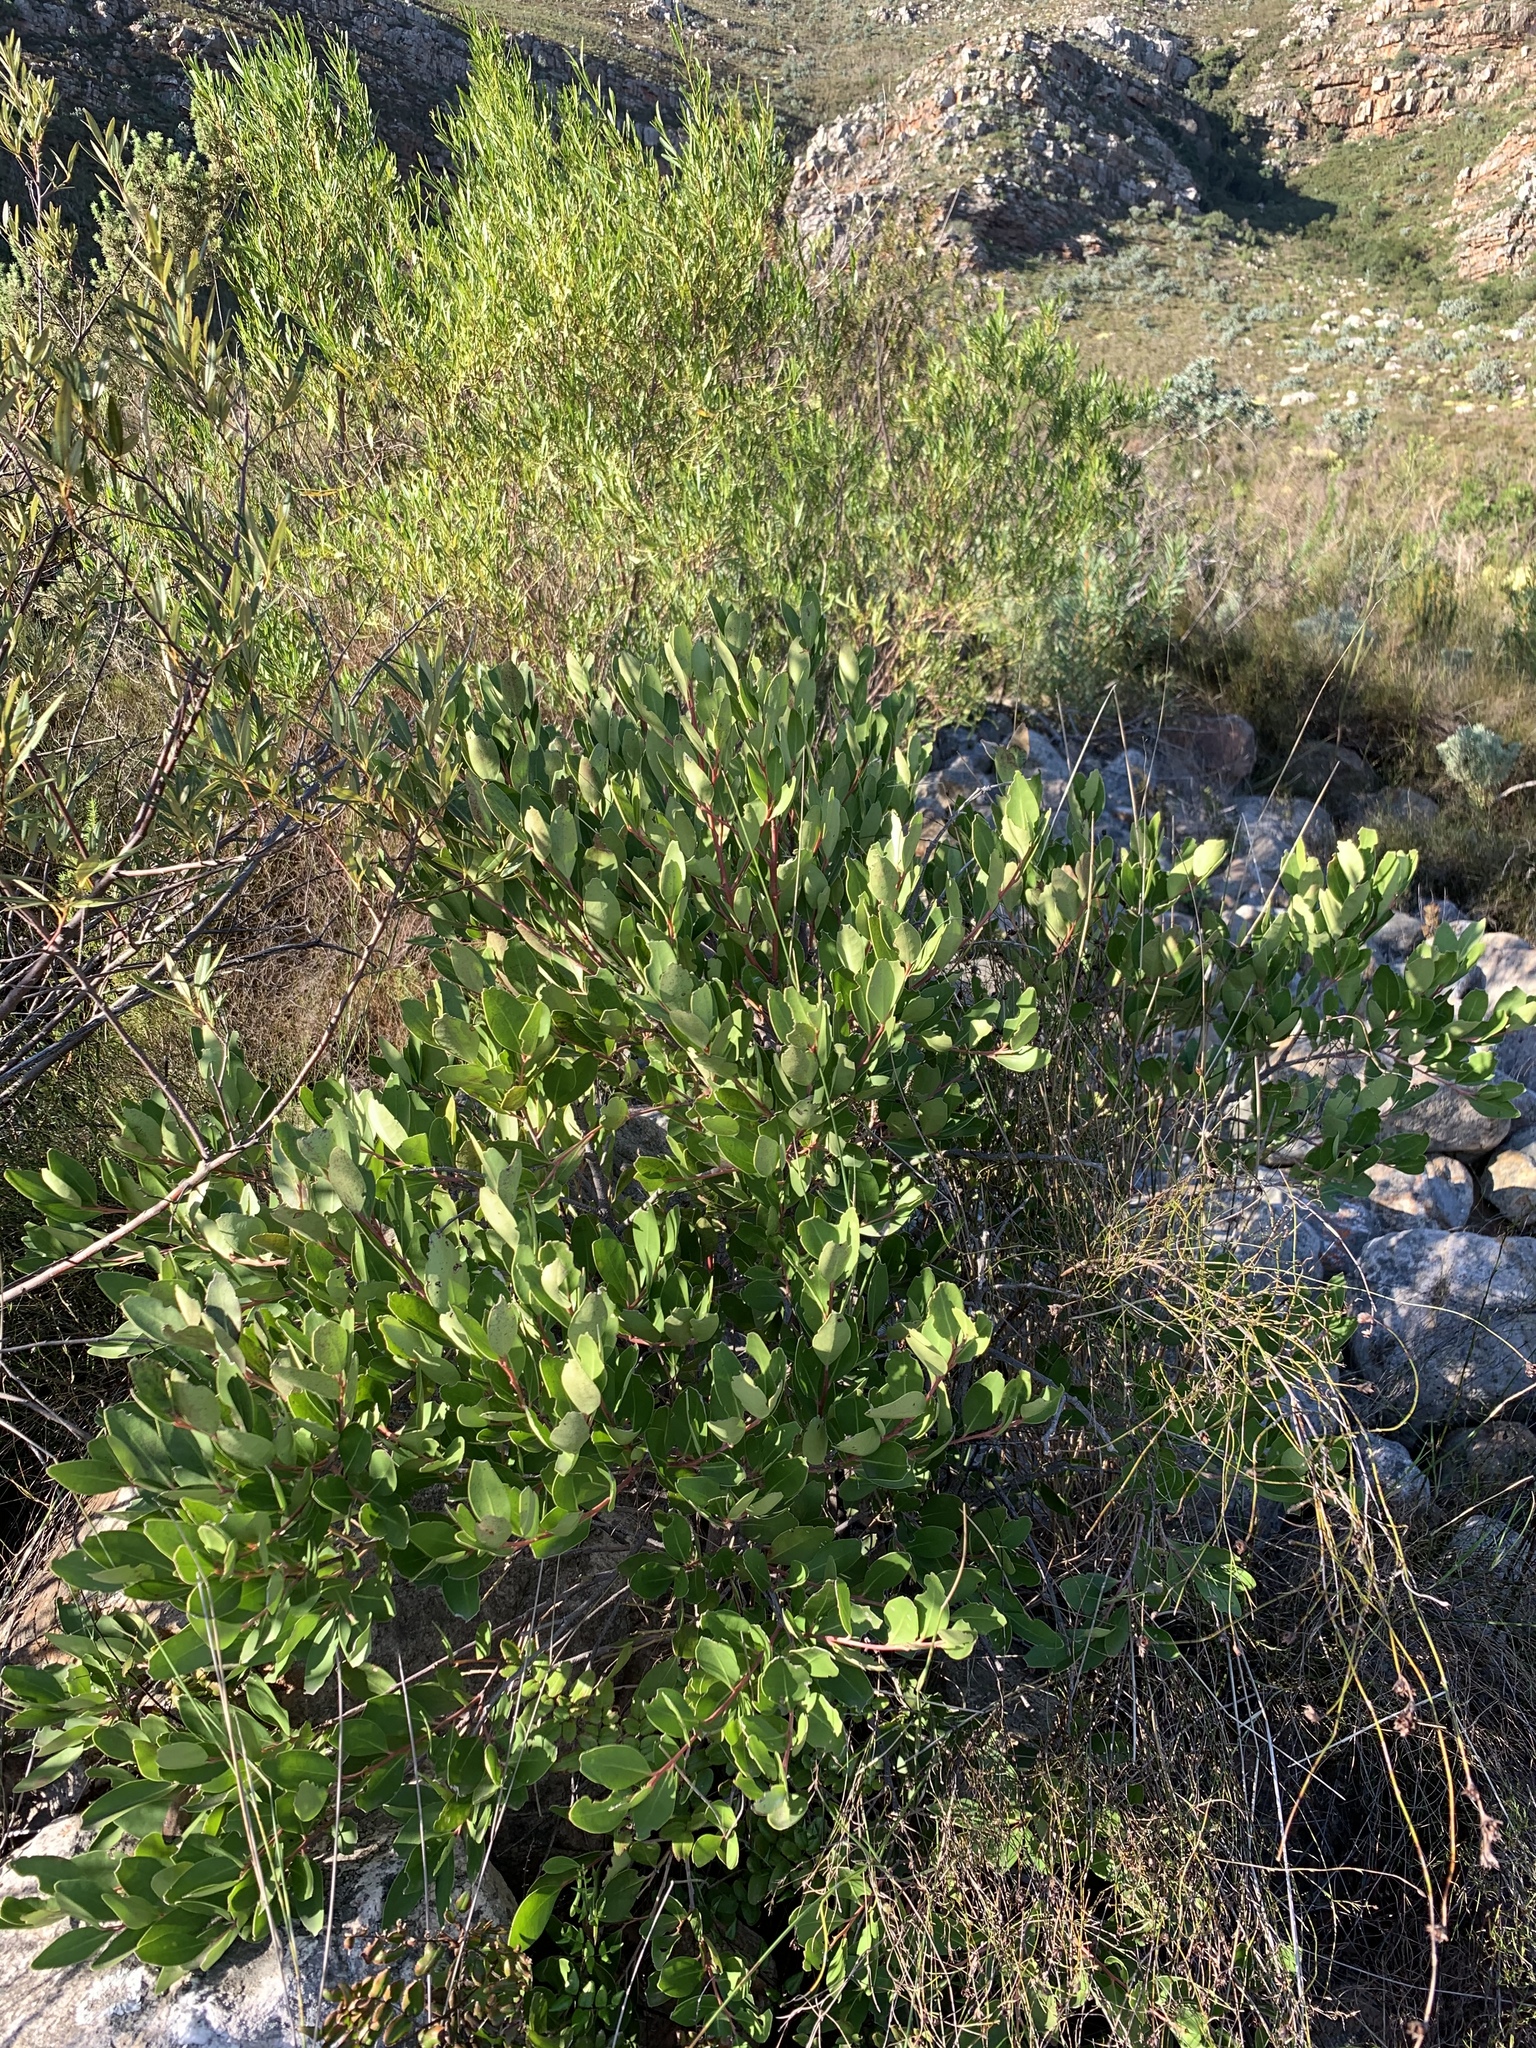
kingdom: Plantae
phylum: Tracheophyta
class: Magnoliopsida
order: Celastrales
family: Celastraceae
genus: Gymnosporia
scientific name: Gymnosporia laurina
